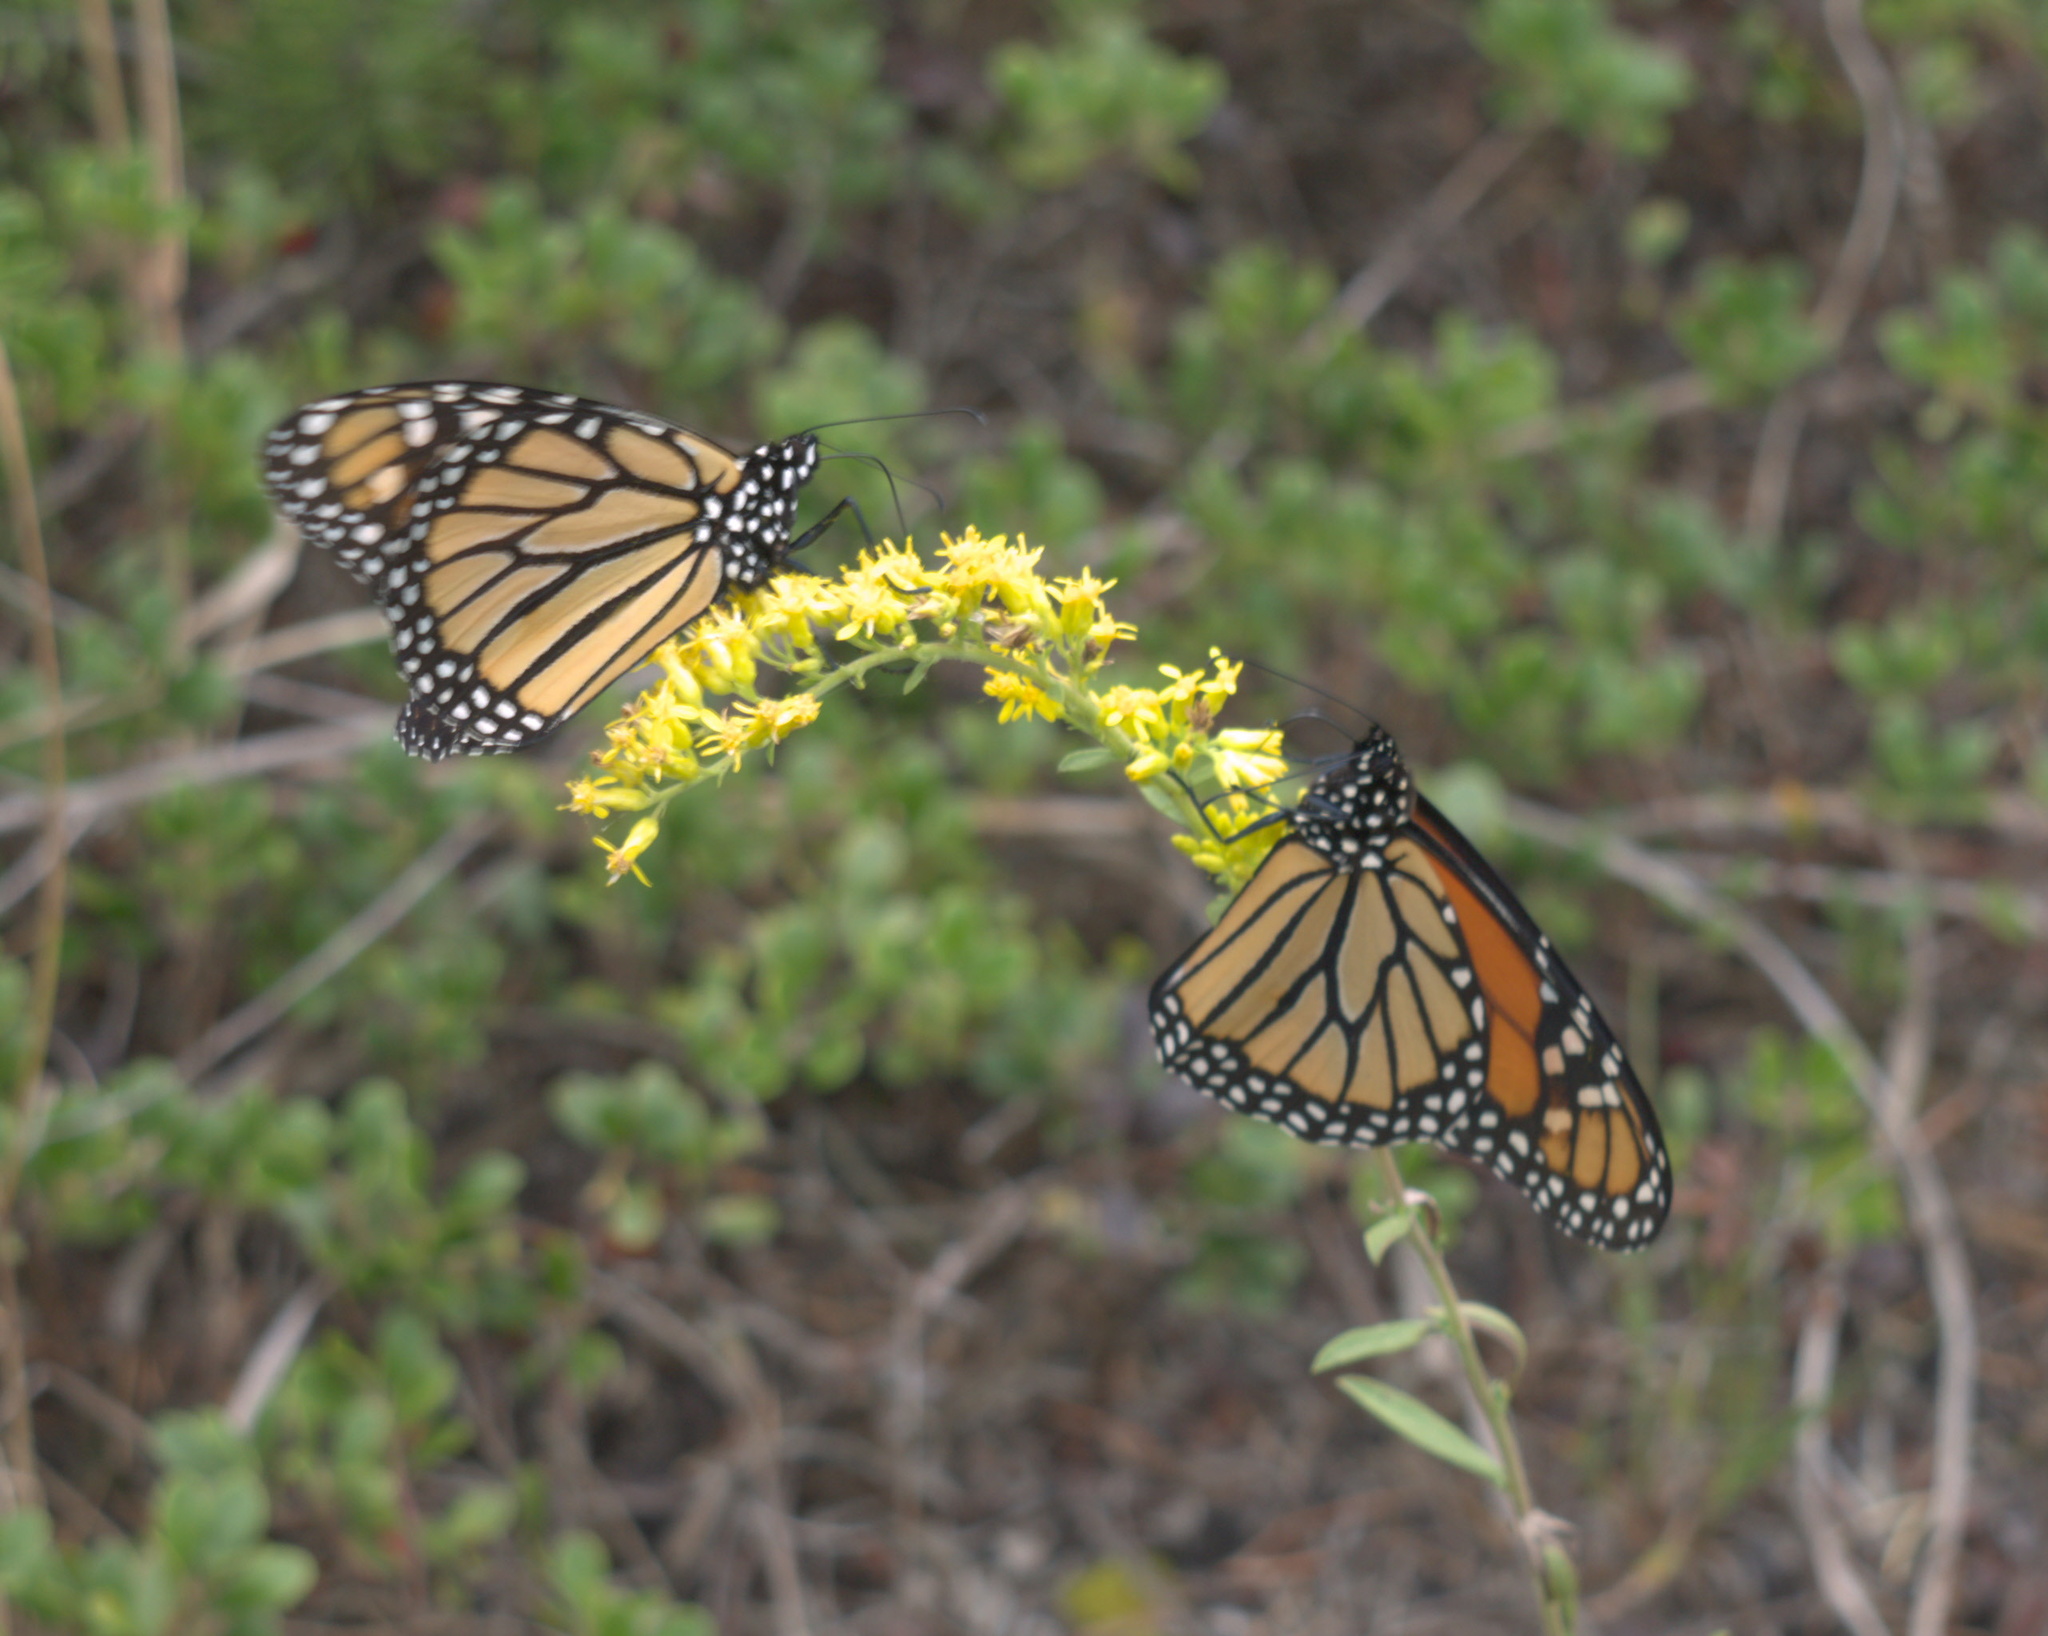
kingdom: Animalia
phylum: Arthropoda
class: Insecta
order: Lepidoptera
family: Nymphalidae
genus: Danaus
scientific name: Danaus plexippus
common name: Monarch
